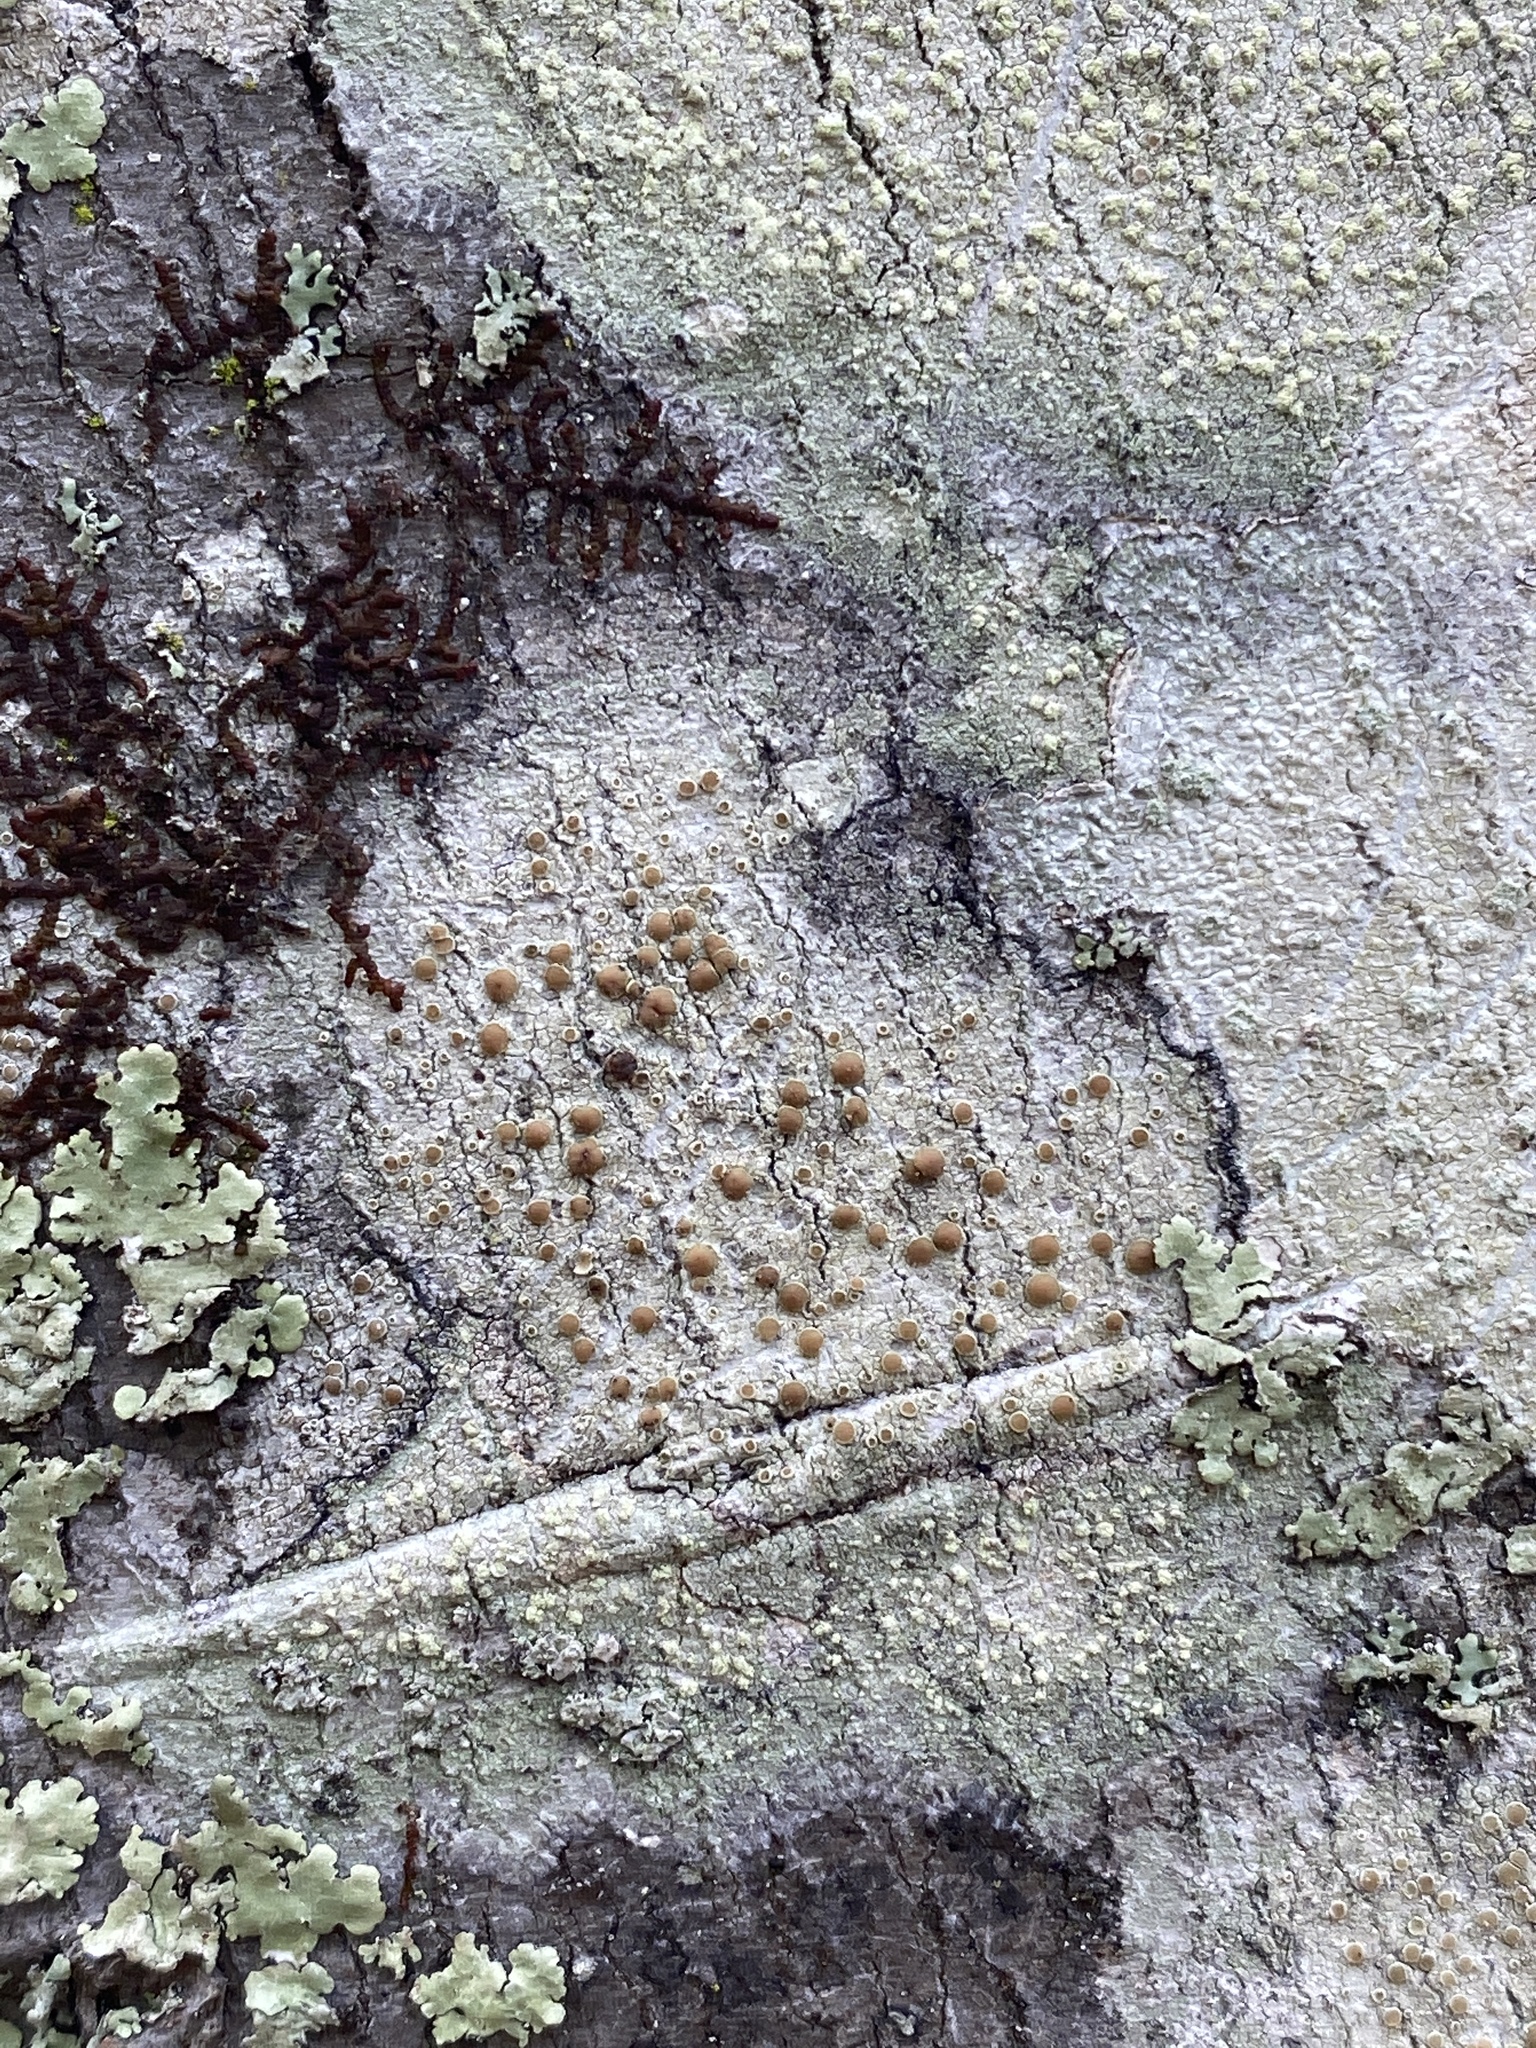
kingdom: Fungi
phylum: Ascomycota
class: Lecanoromycetes
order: Lecanorales
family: Lecanoraceae
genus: Lecanora
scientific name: Lecanora hybocarpa
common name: Bumpy rim-lichen
